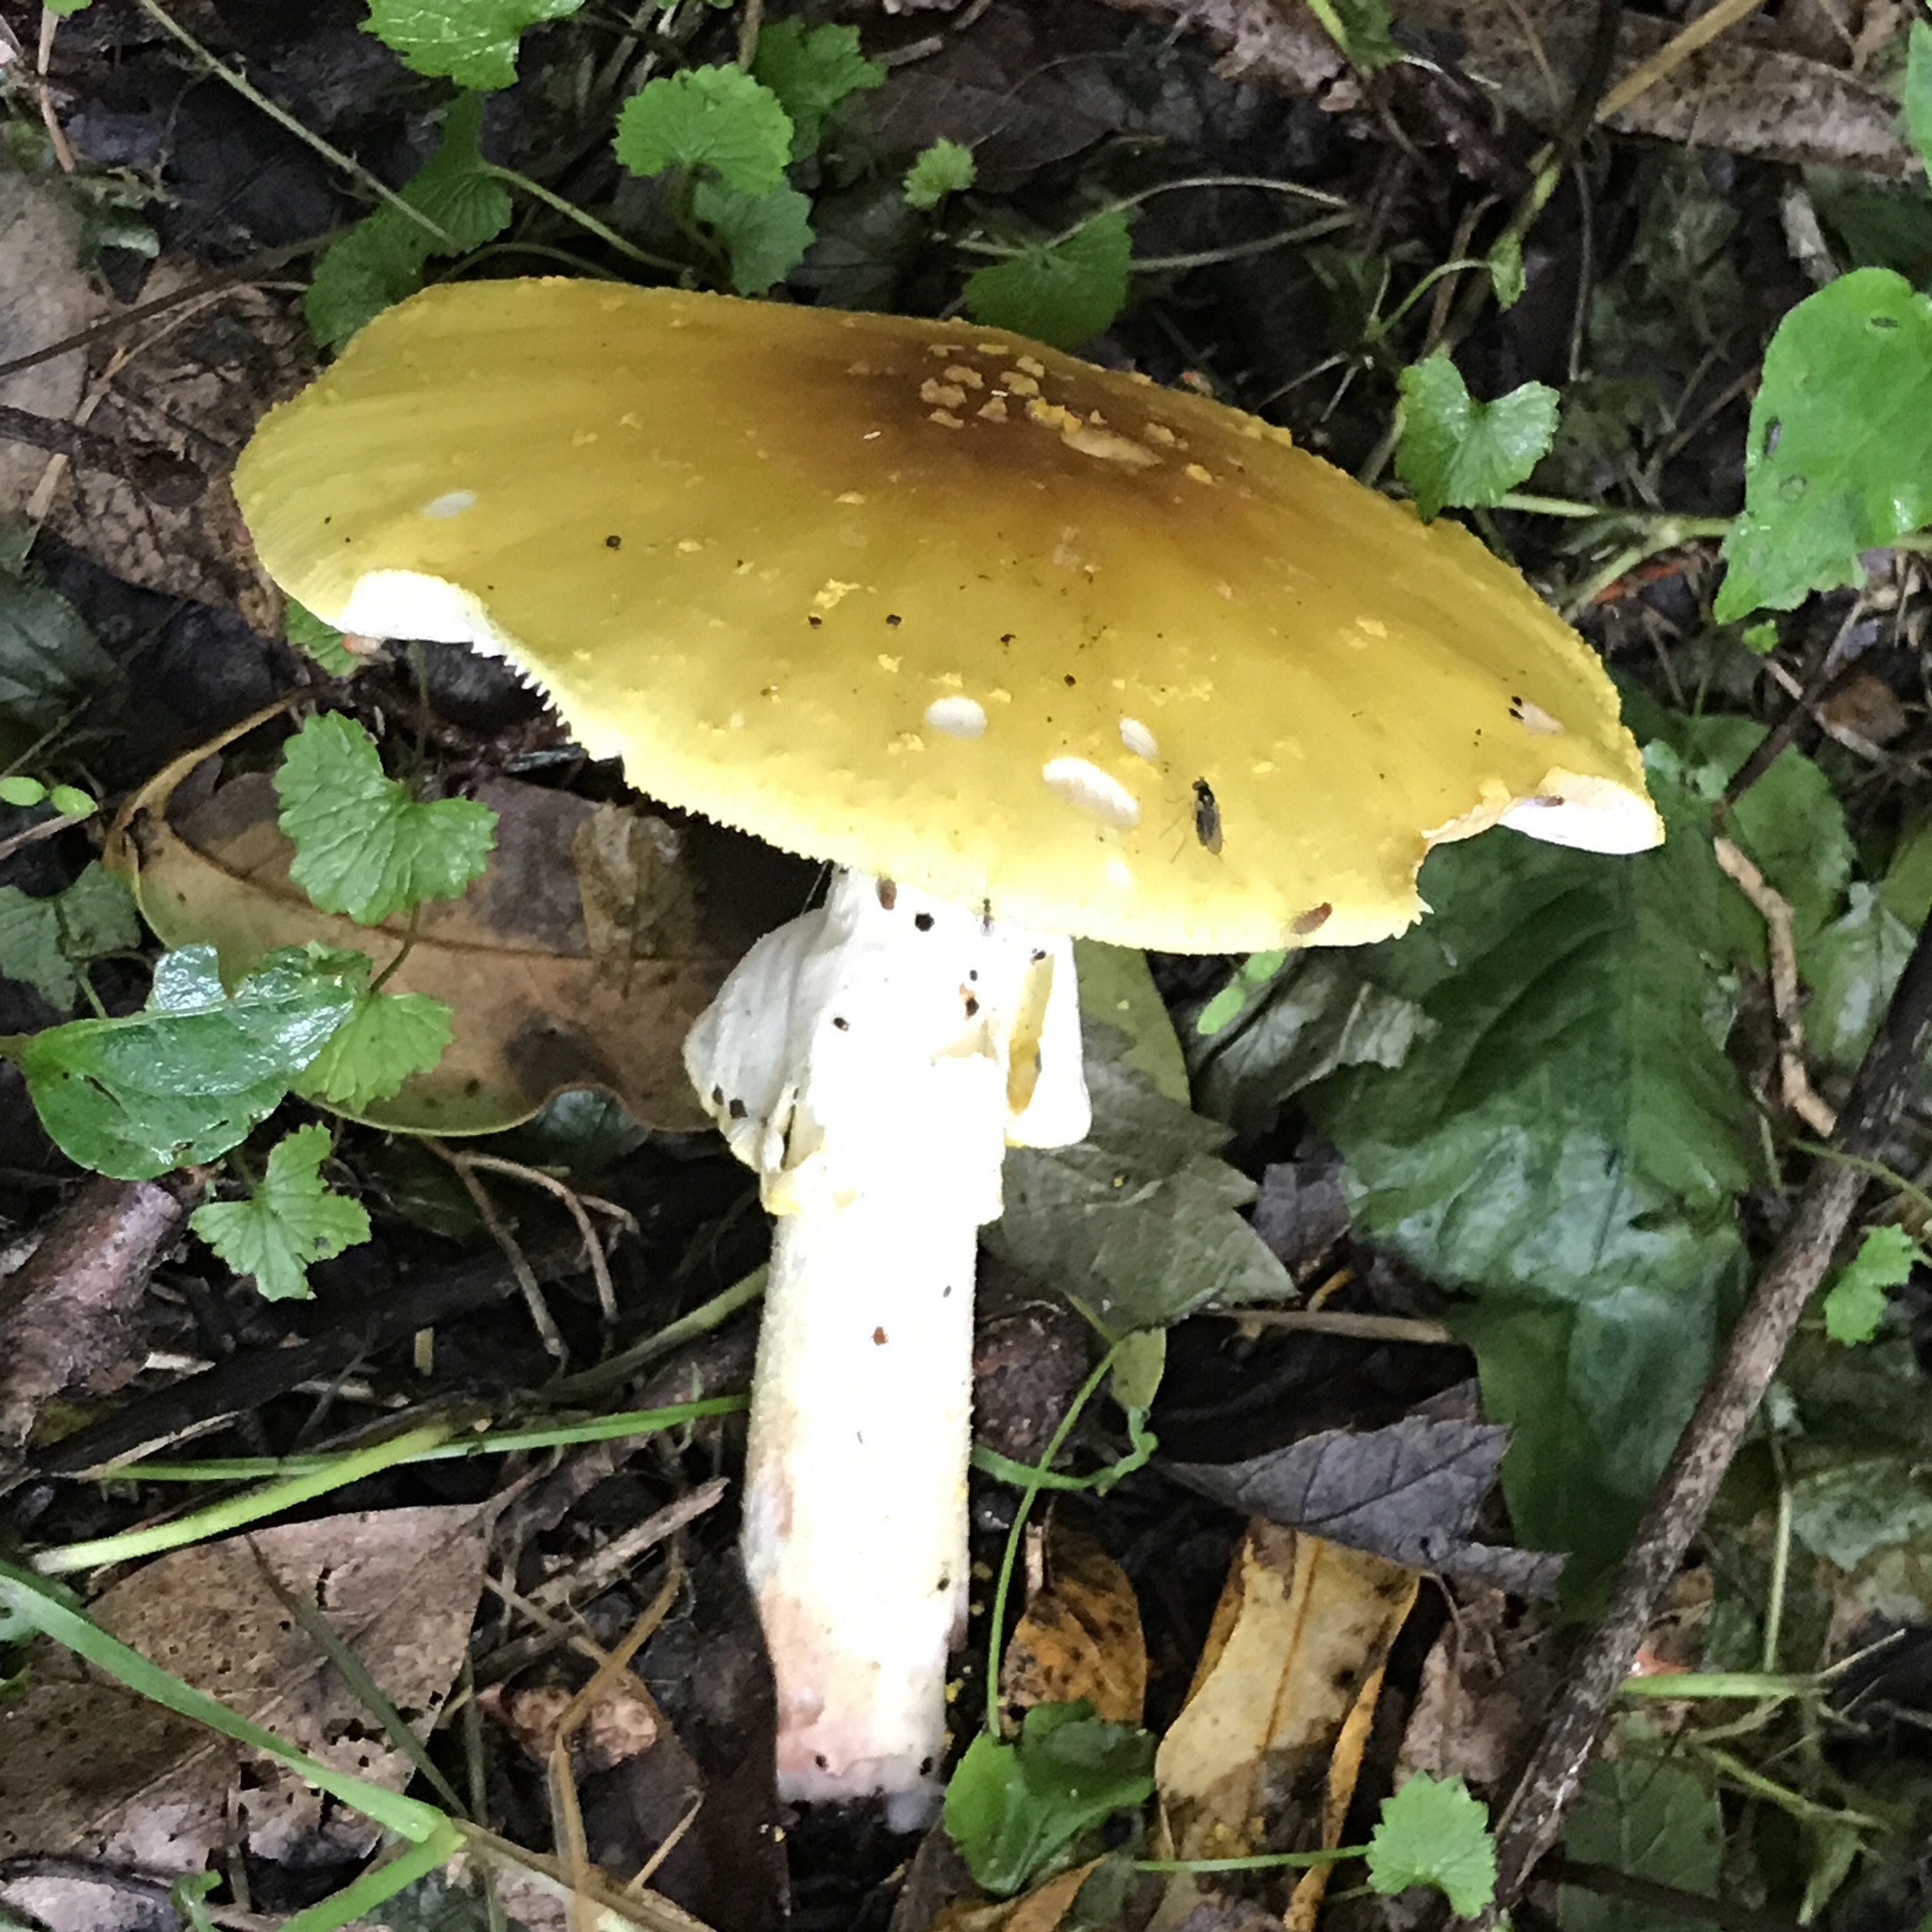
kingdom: Fungi
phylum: Basidiomycota
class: Agaricomycetes
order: Agaricales
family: Amanitaceae
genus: Amanita
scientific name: Amanita flavorubens
